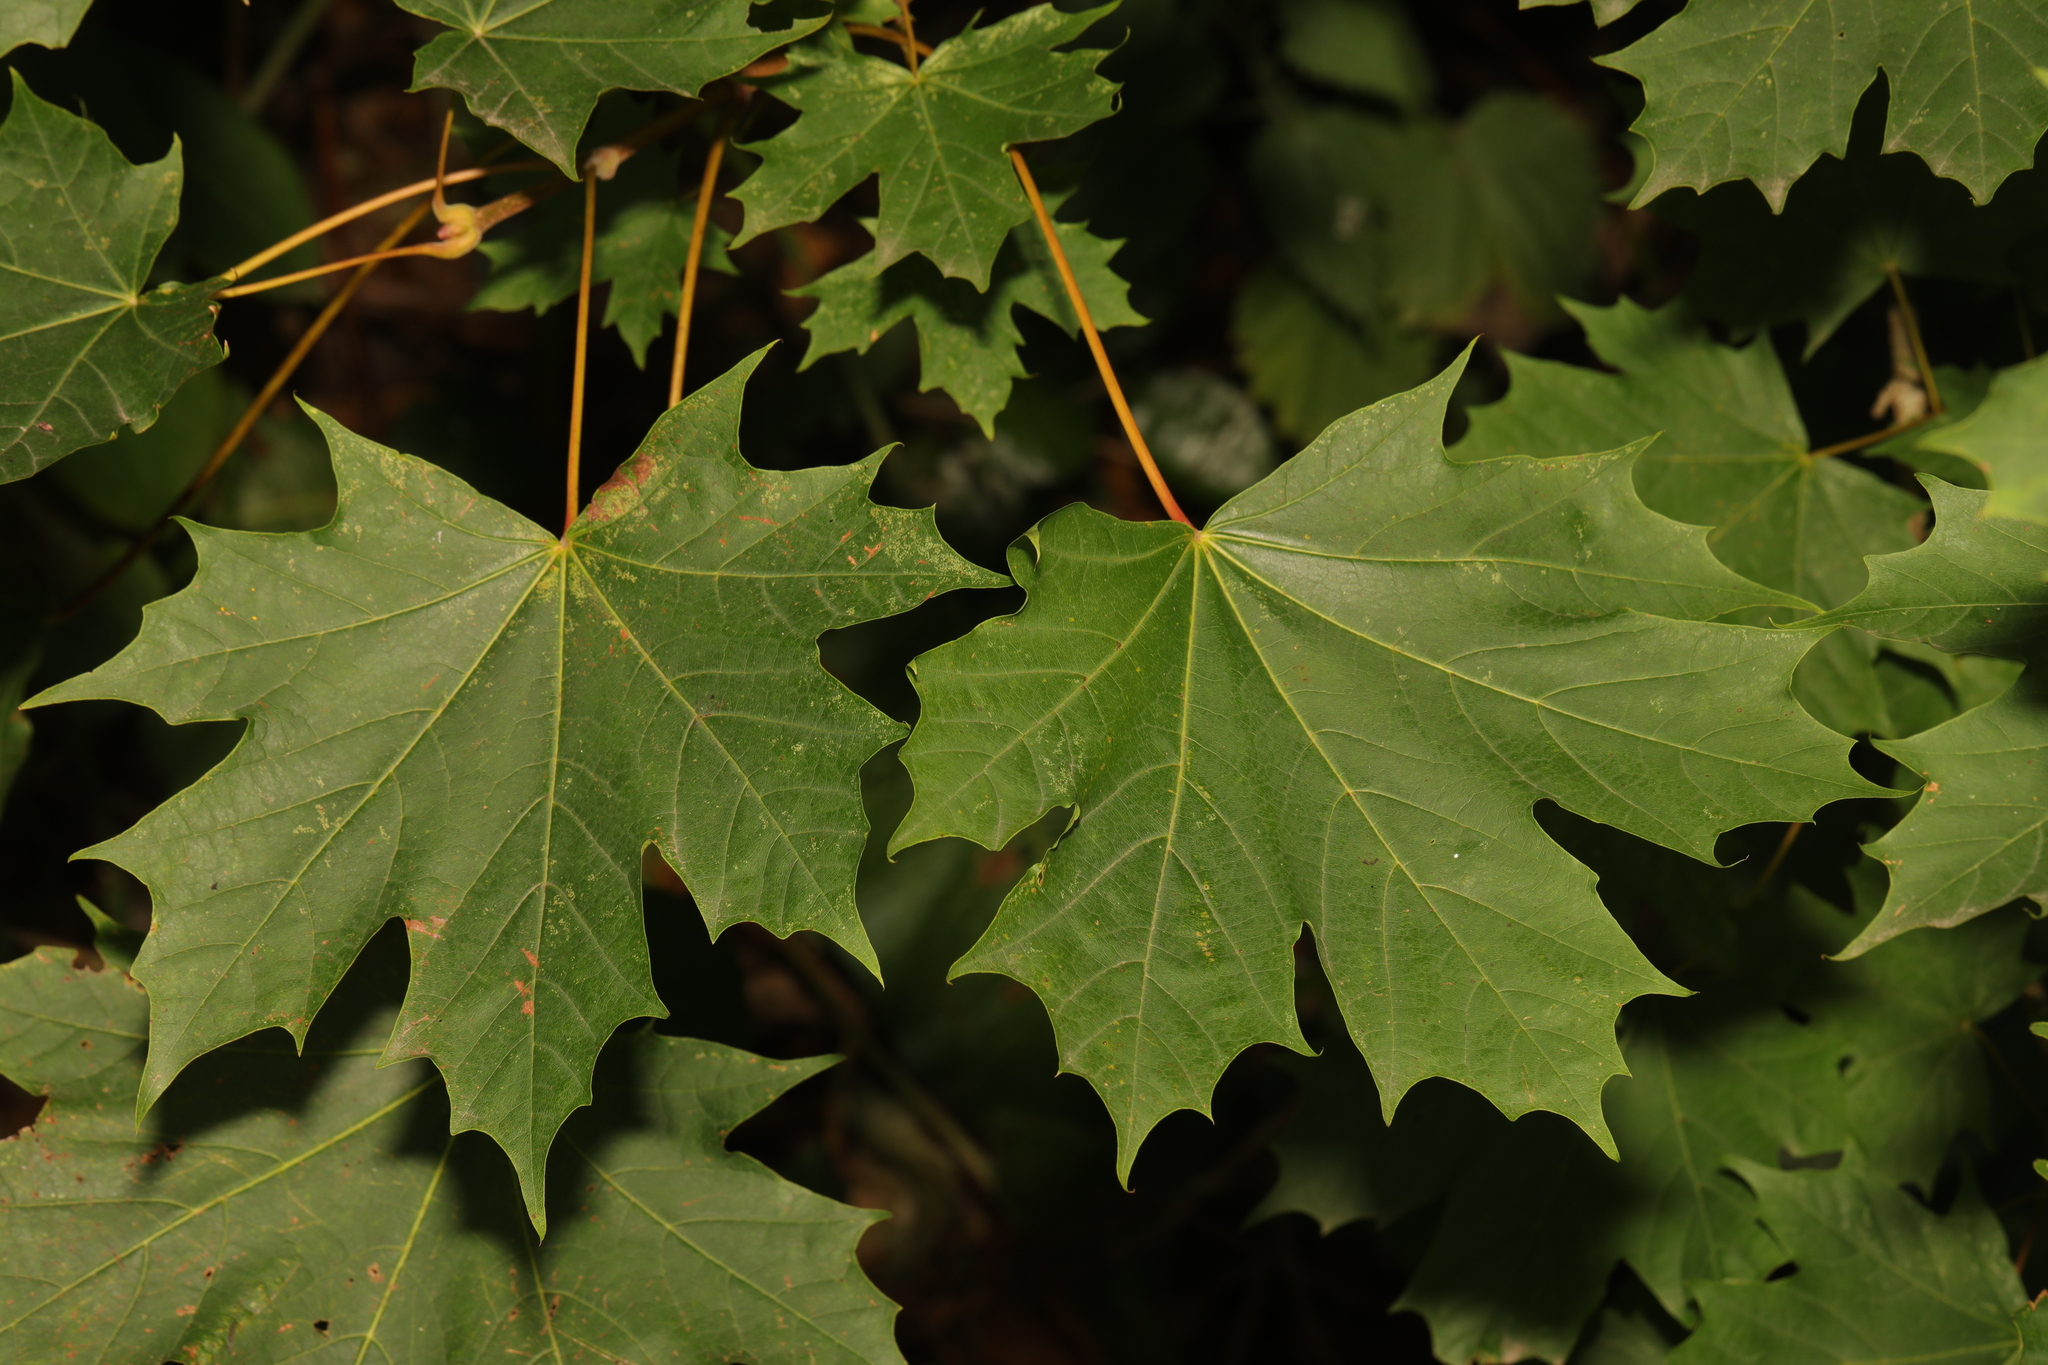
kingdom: Plantae
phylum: Tracheophyta
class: Magnoliopsida
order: Sapindales
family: Sapindaceae
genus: Acer
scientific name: Acer platanoides
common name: Norway maple
